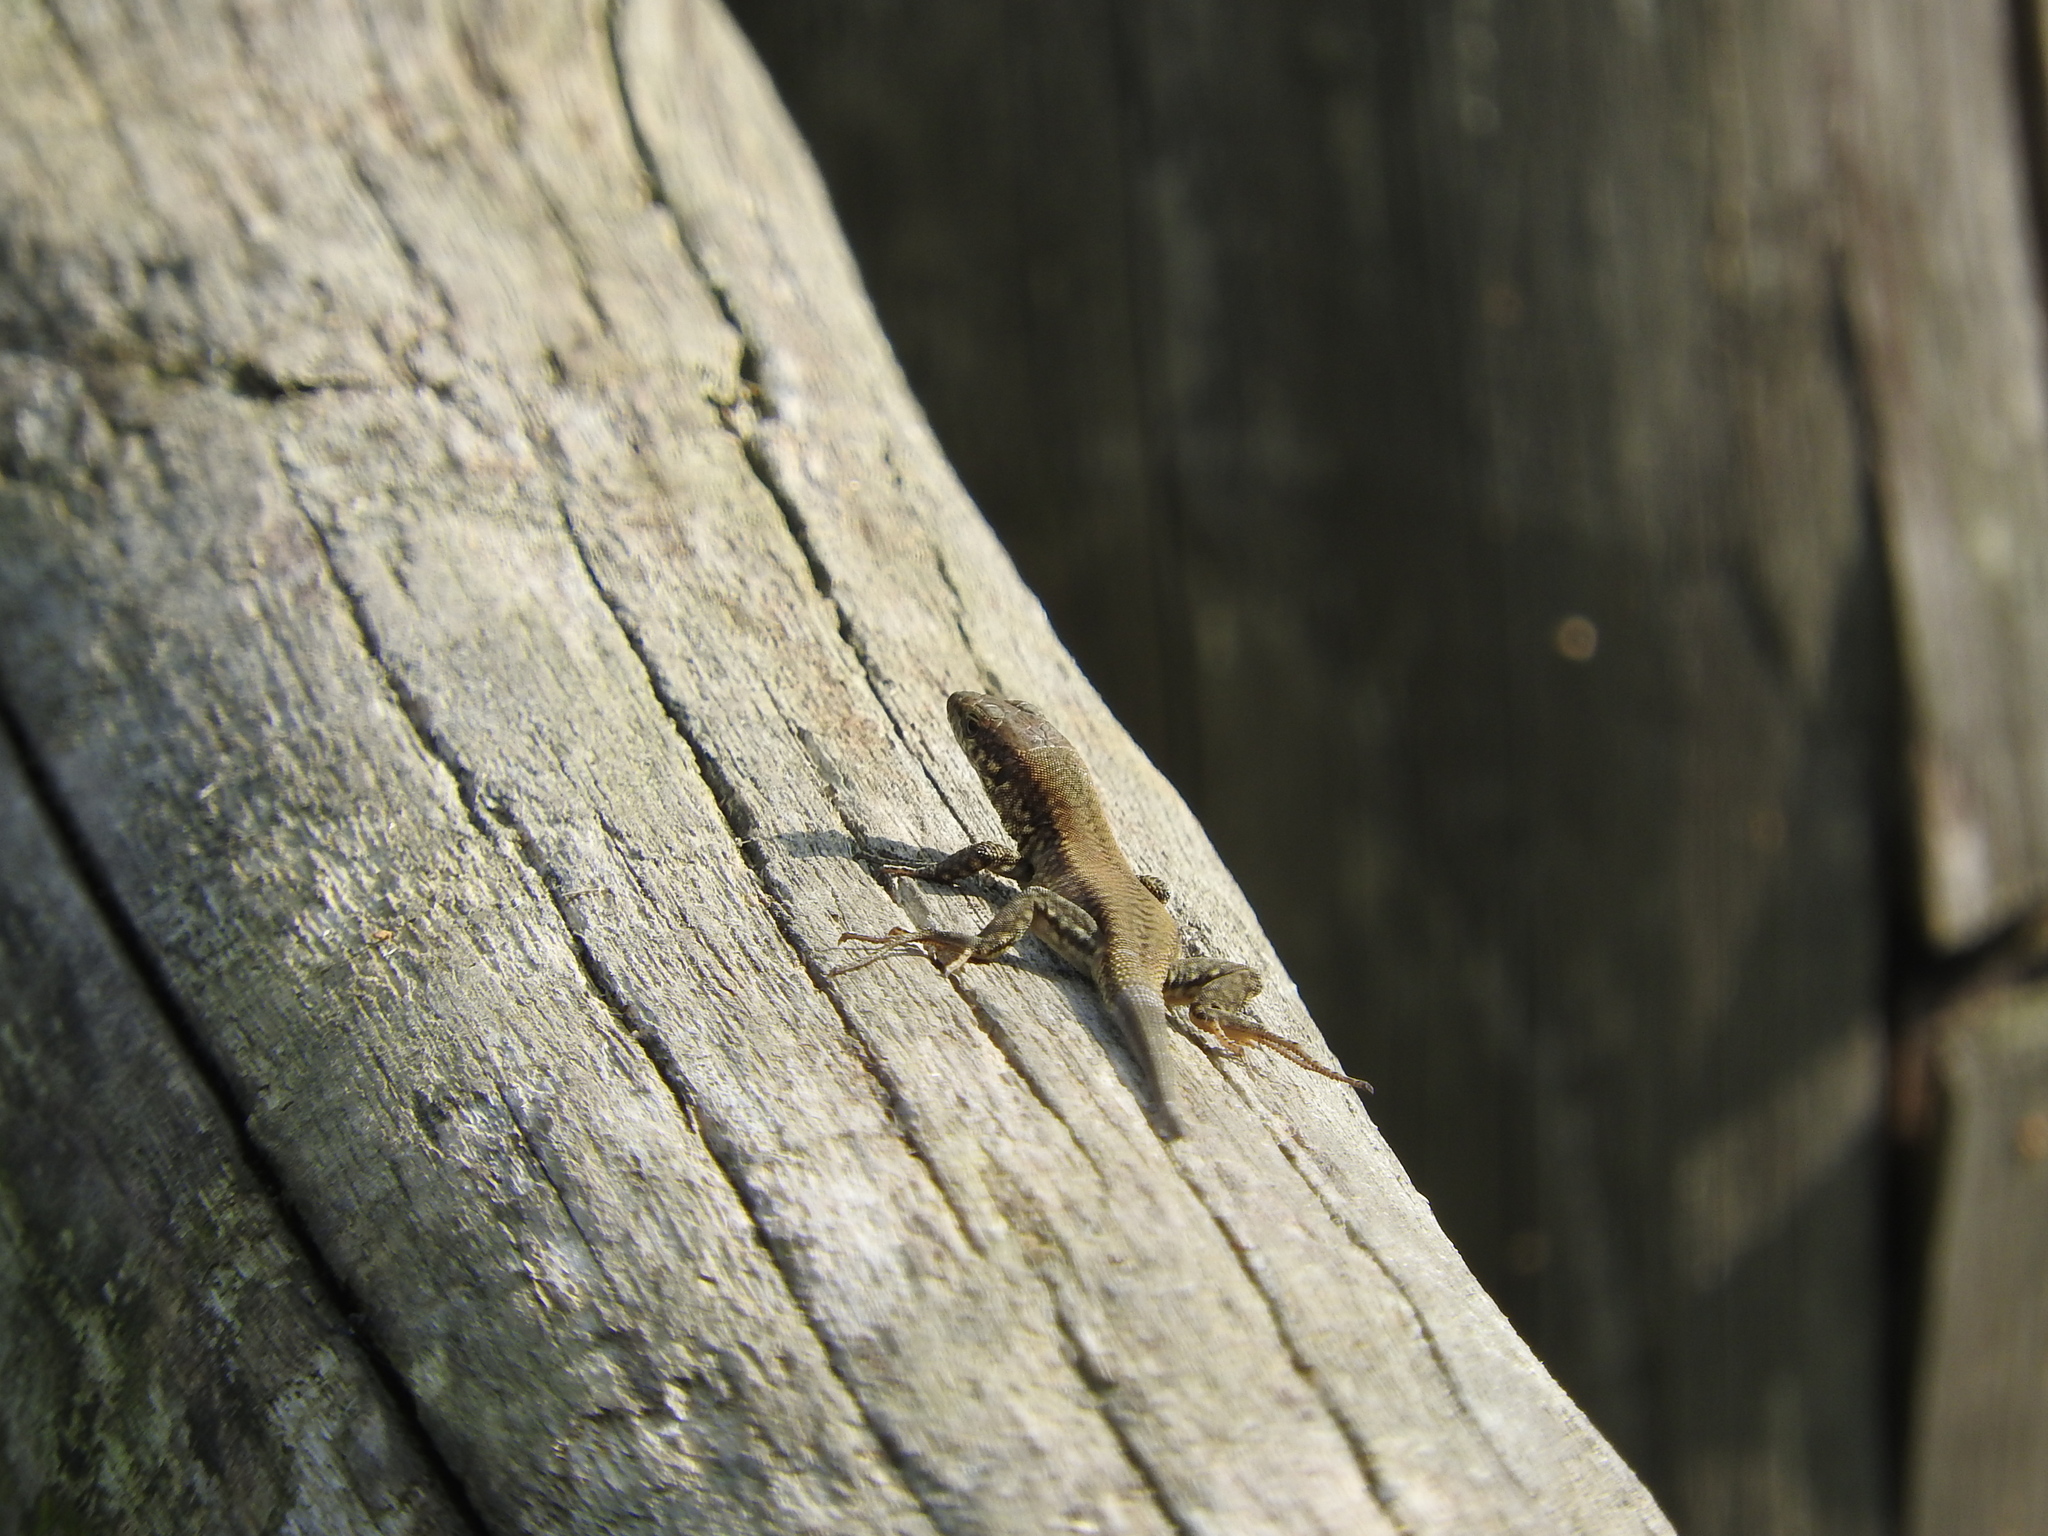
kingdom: Animalia
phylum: Chordata
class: Squamata
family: Lacertidae
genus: Podarcis
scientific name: Podarcis muralis
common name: Common wall lizard
